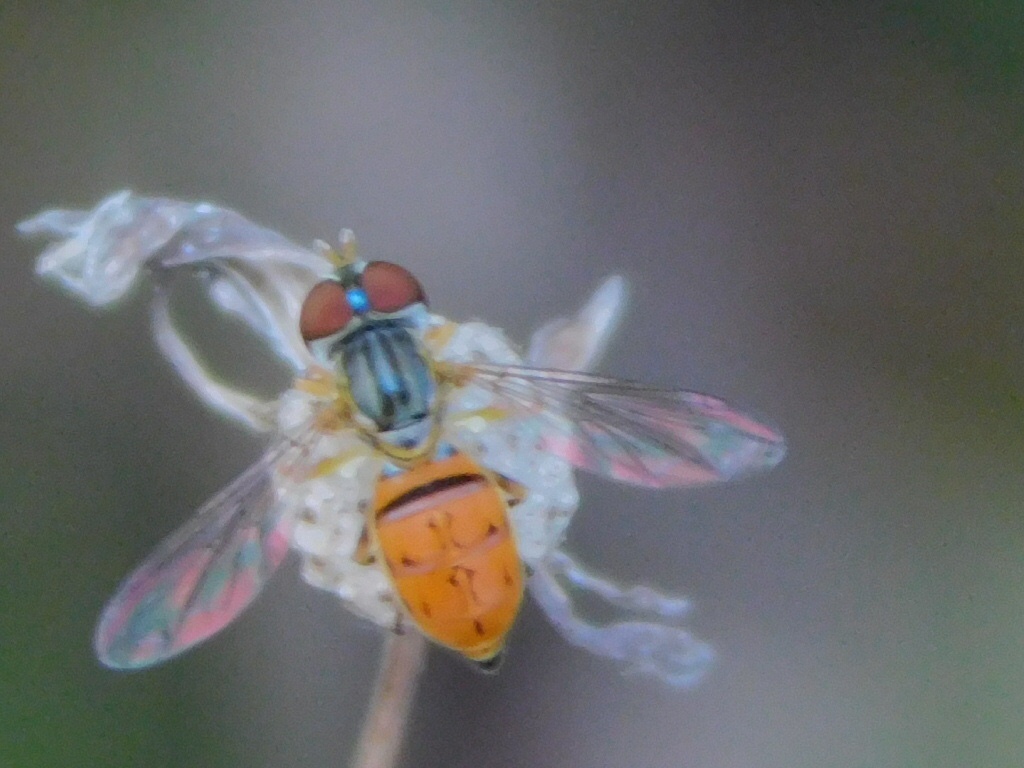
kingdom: Animalia
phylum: Arthropoda
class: Insecta
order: Diptera
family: Syrphidae
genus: Toxomerus
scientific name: Toxomerus boscii
